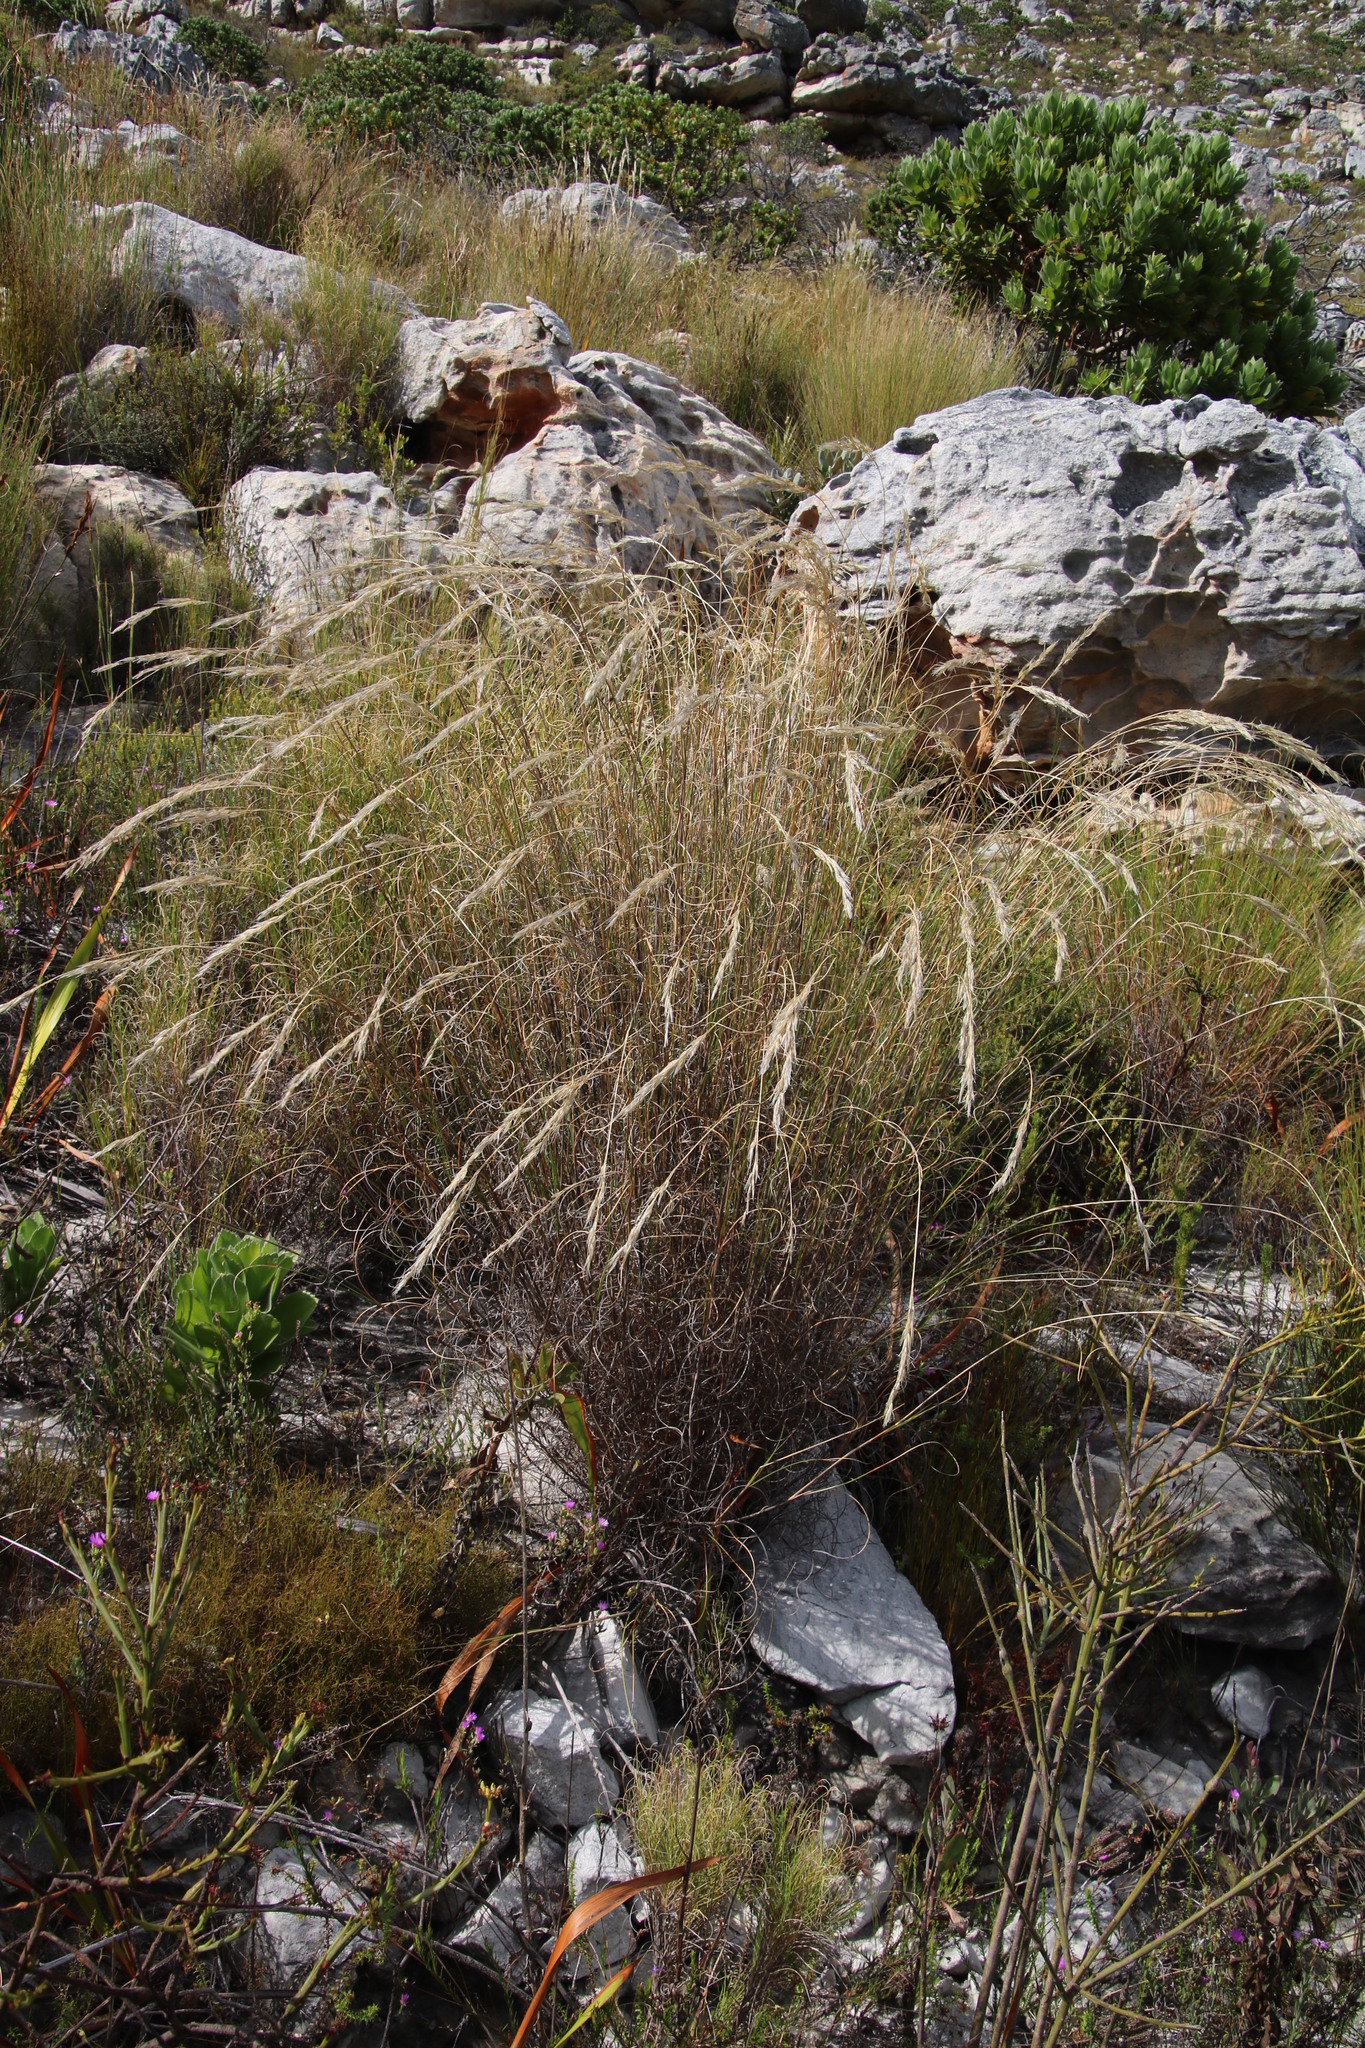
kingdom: Plantae
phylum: Tracheophyta
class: Liliopsida
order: Poales
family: Poaceae
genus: Pseudopentameris
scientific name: Pseudopentameris macrantha
